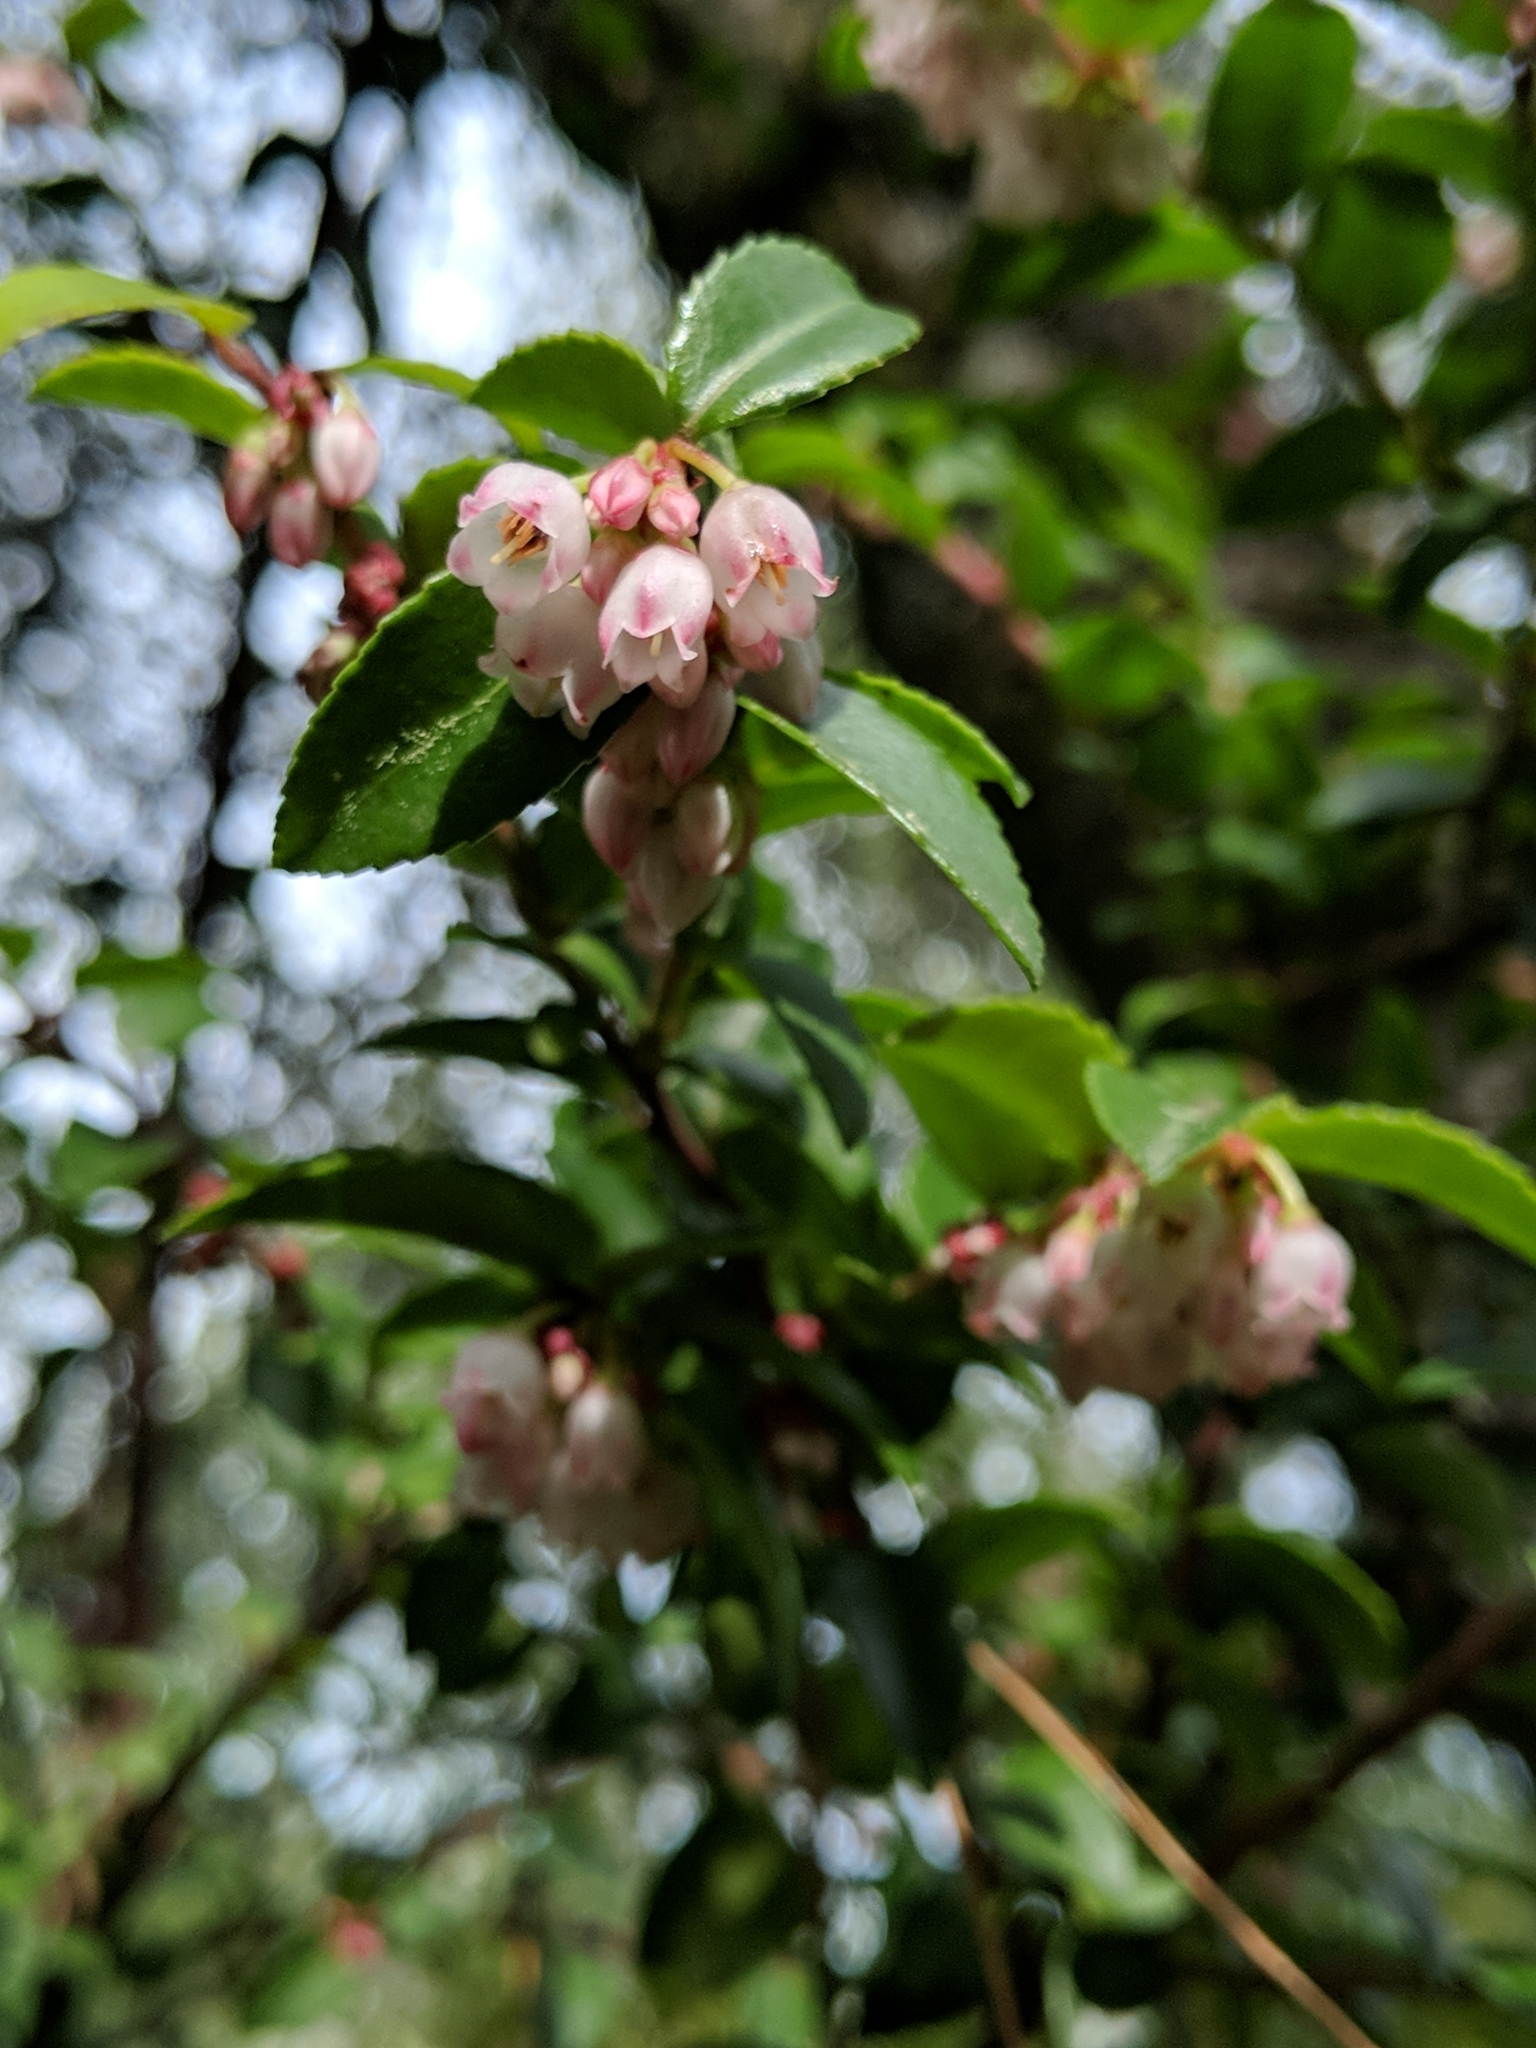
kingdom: Plantae
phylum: Tracheophyta
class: Magnoliopsida
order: Ericales
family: Ericaceae
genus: Vaccinium
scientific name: Vaccinium ovatum
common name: California-huckleberry
